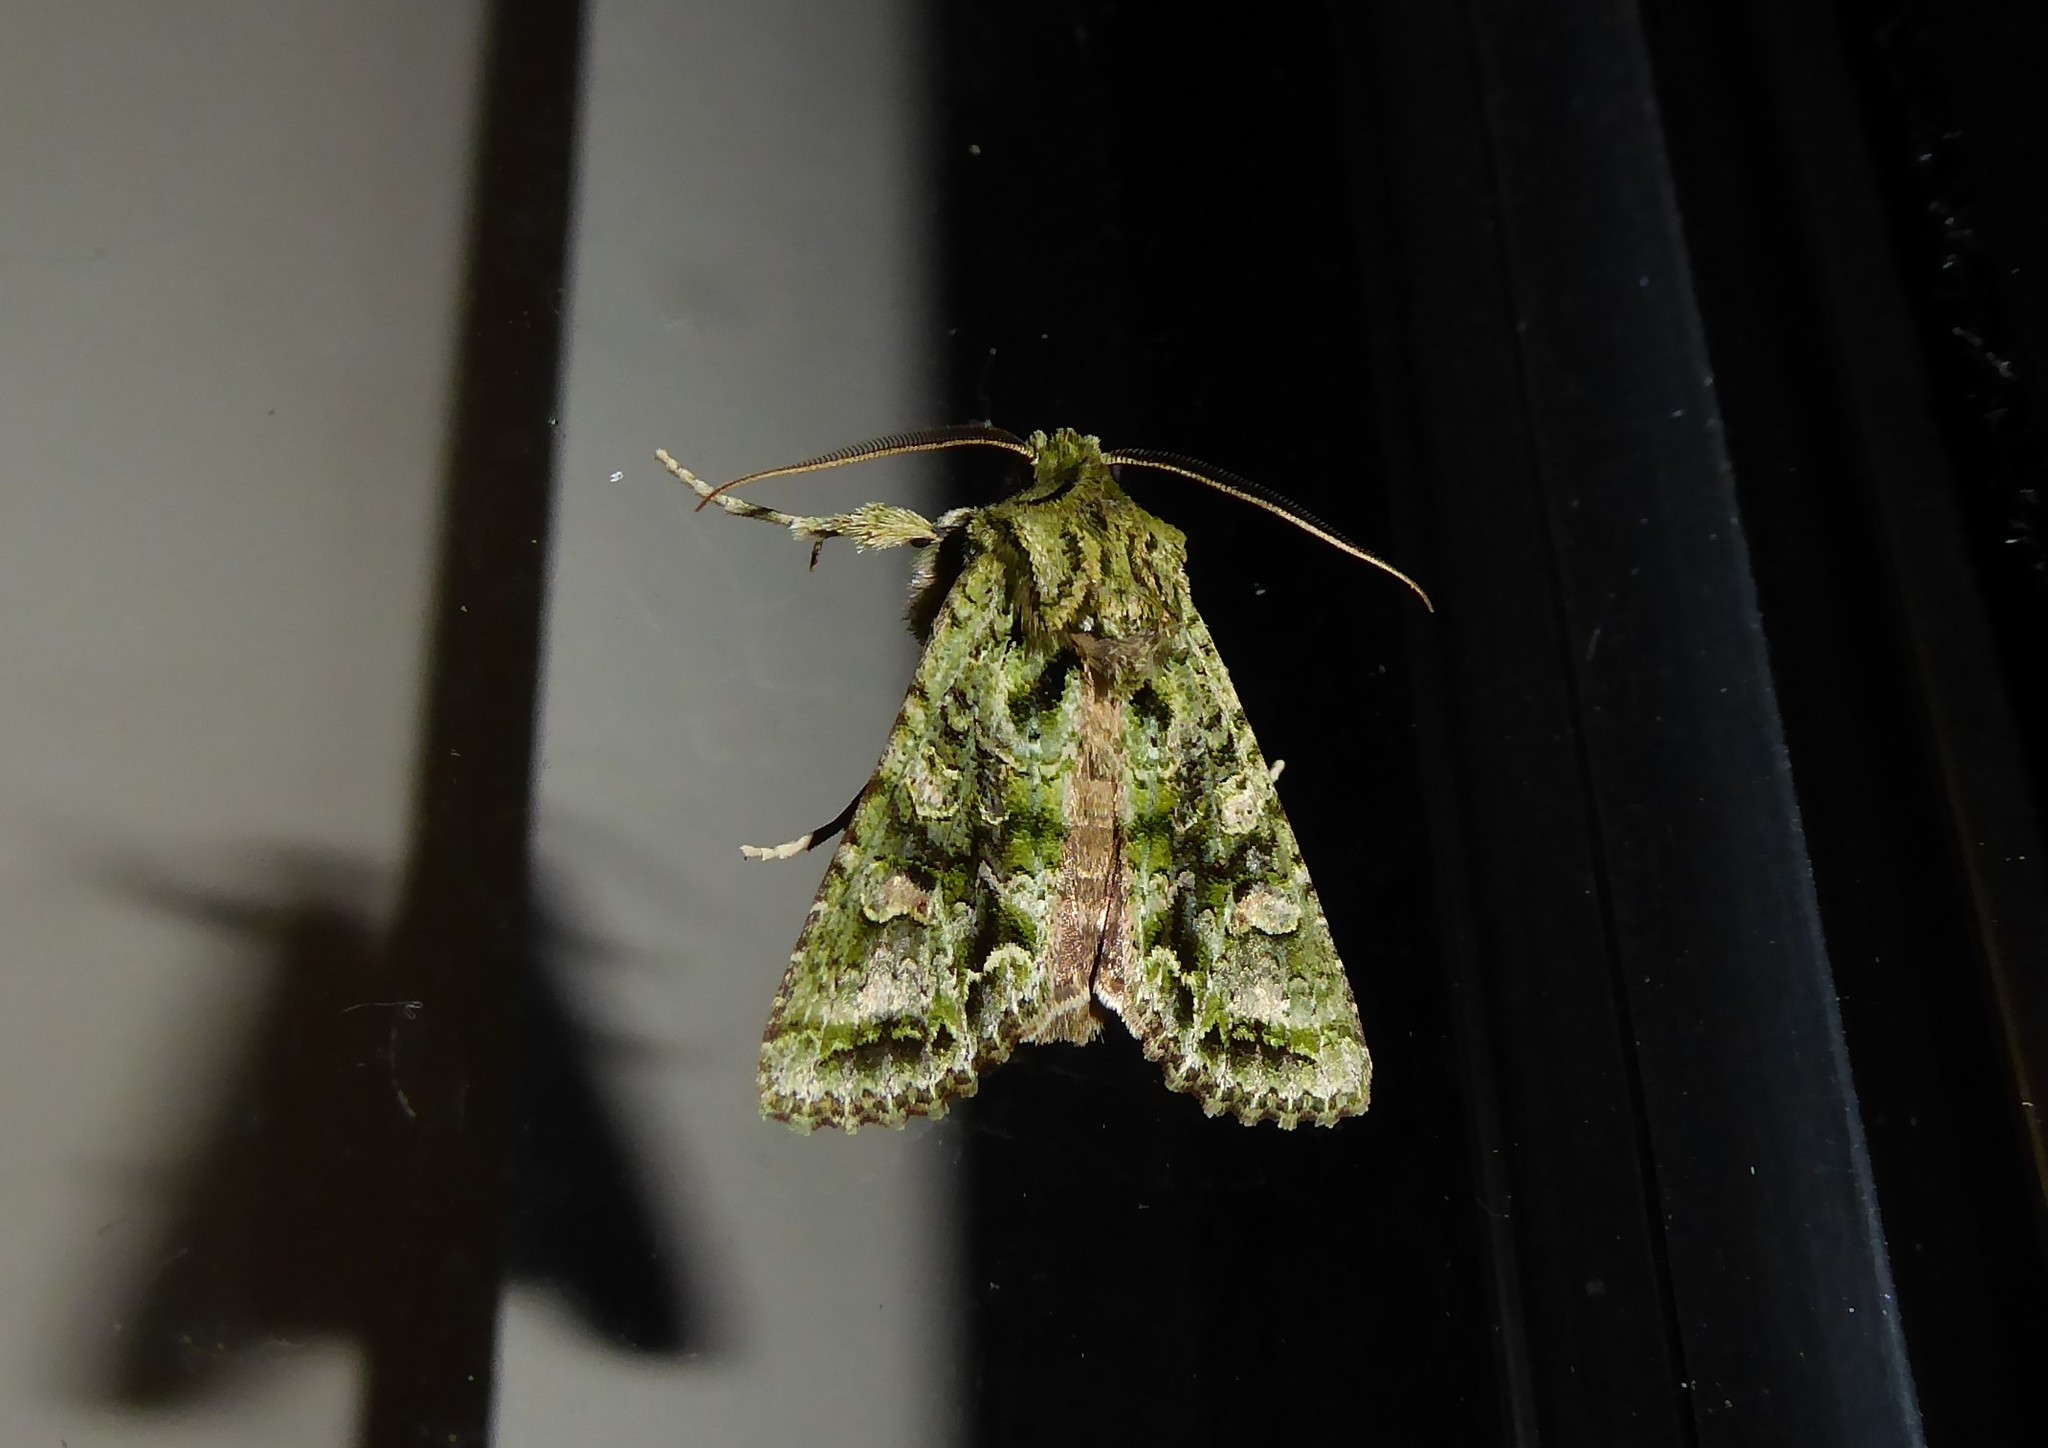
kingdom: Animalia
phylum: Arthropoda
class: Insecta
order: Lepidoptera
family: Noctuidae
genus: Ichneutica
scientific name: Ichneutica
